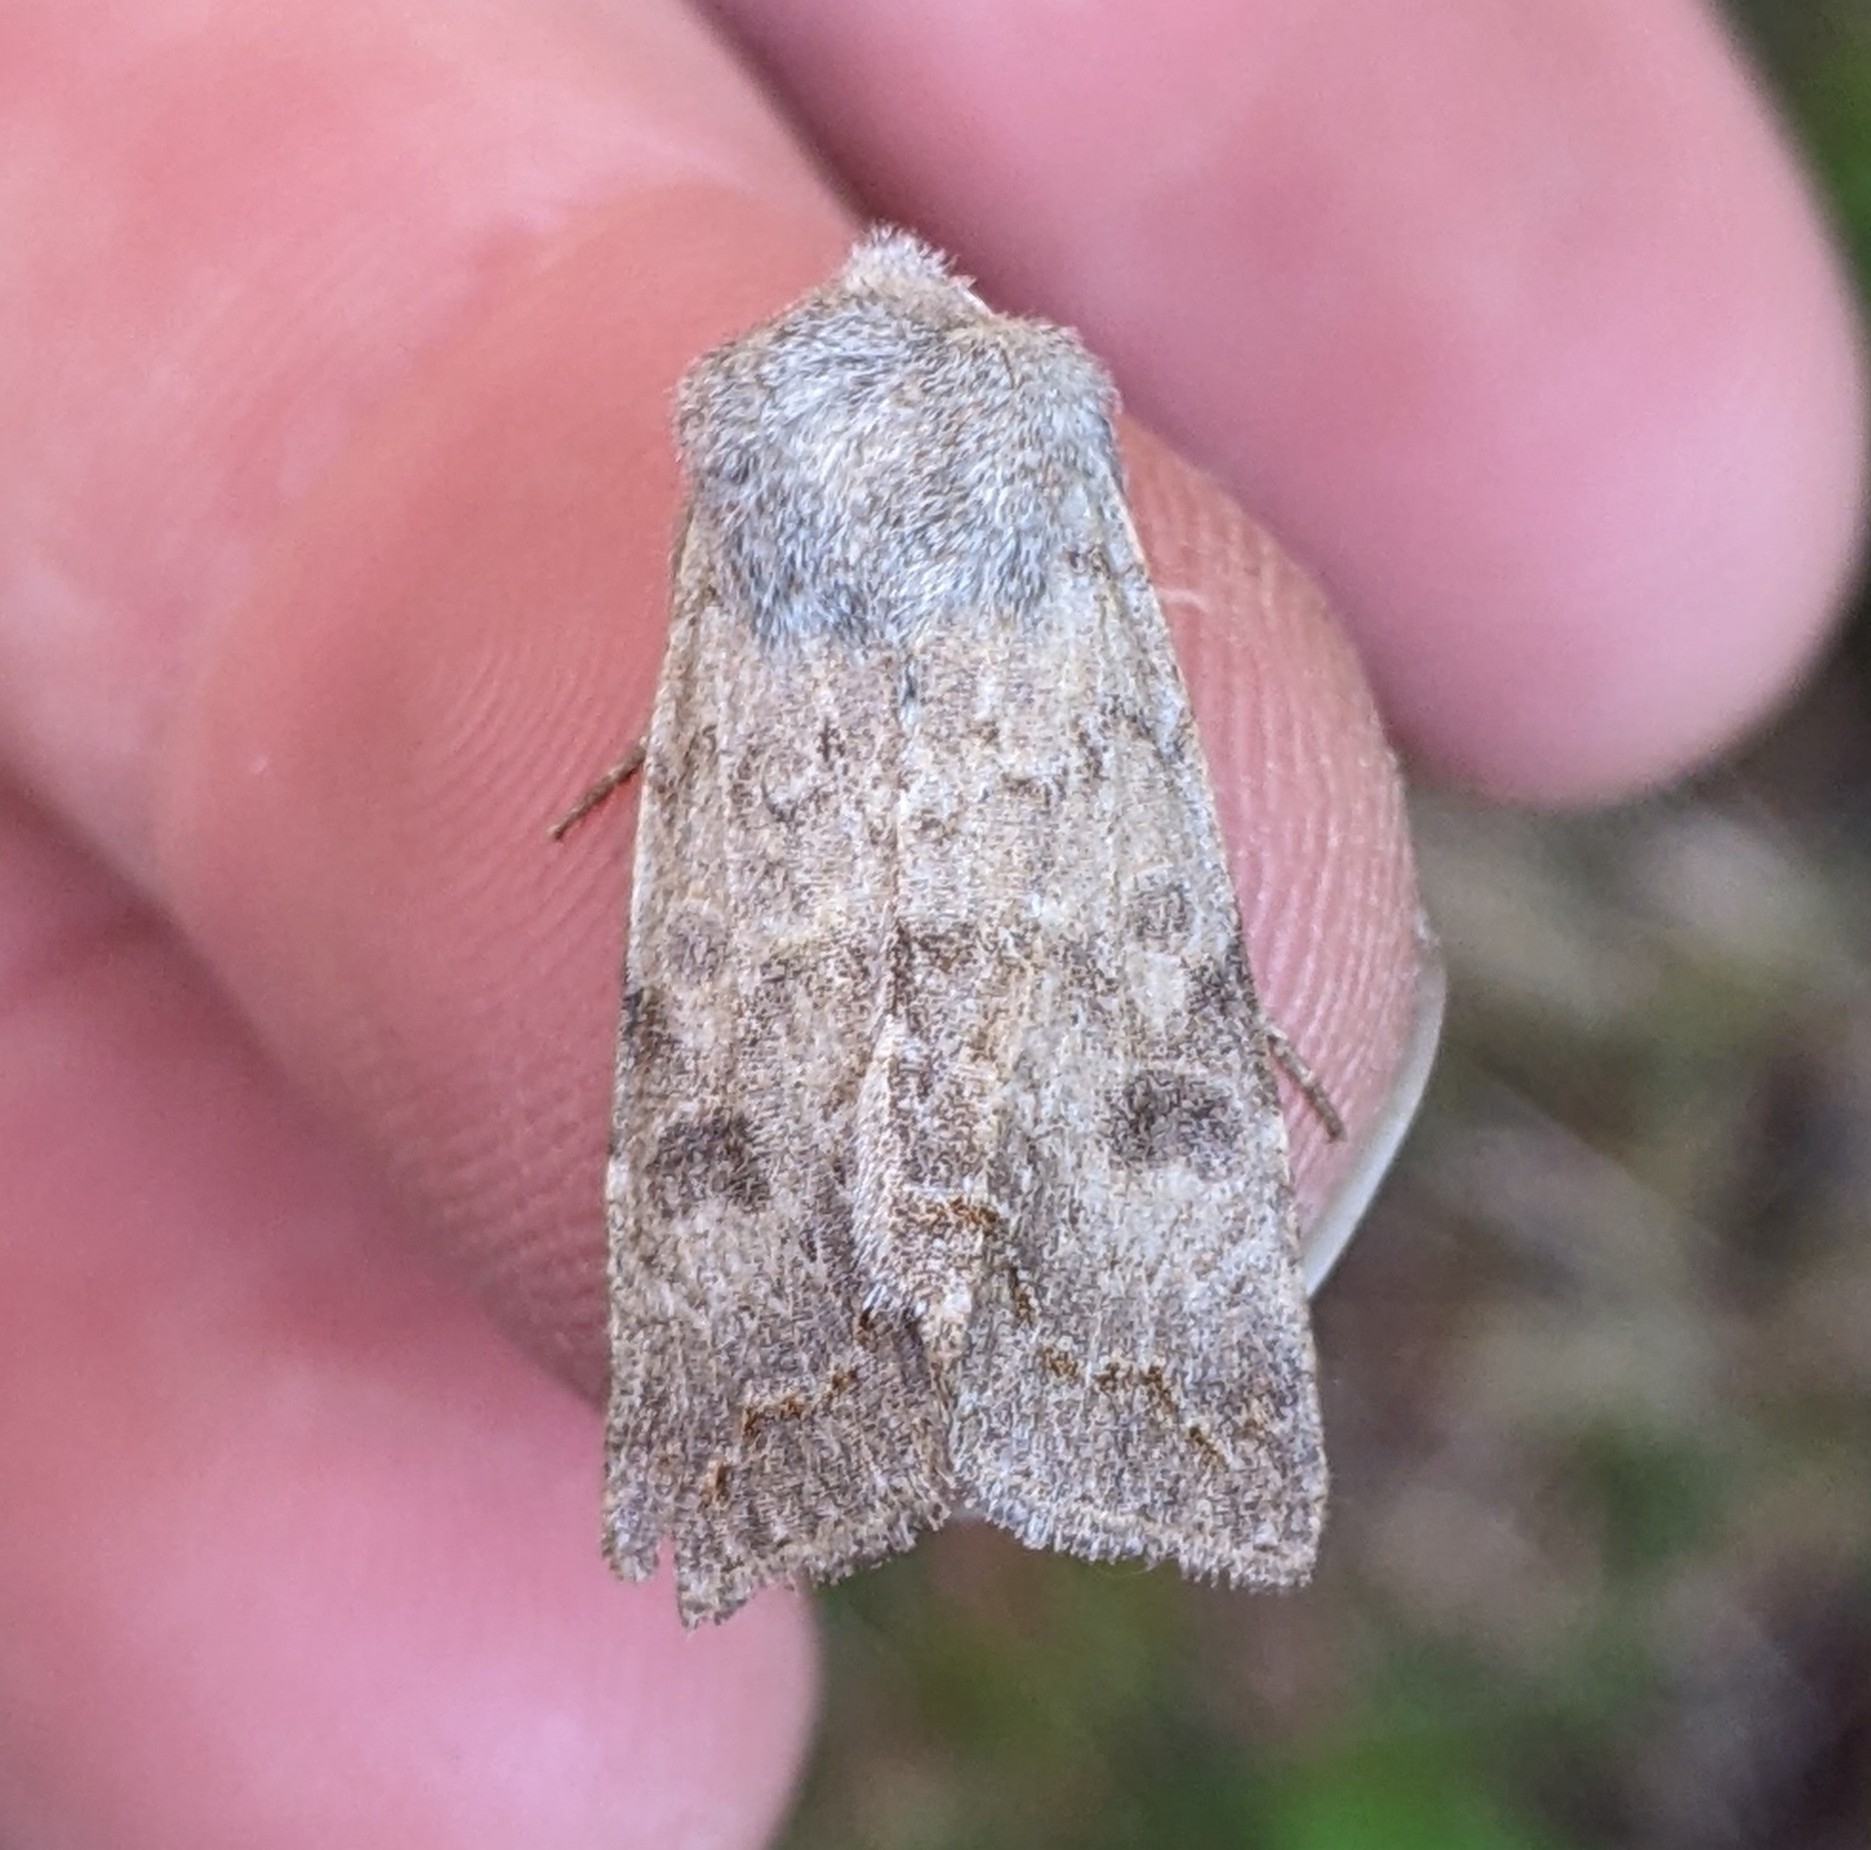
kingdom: Animalia
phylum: Arthropoda
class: Insecta
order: Lepidoptera
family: Noctuidae
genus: Orthosia
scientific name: Orthosia revicta
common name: Rusty whitesided caterpillar
